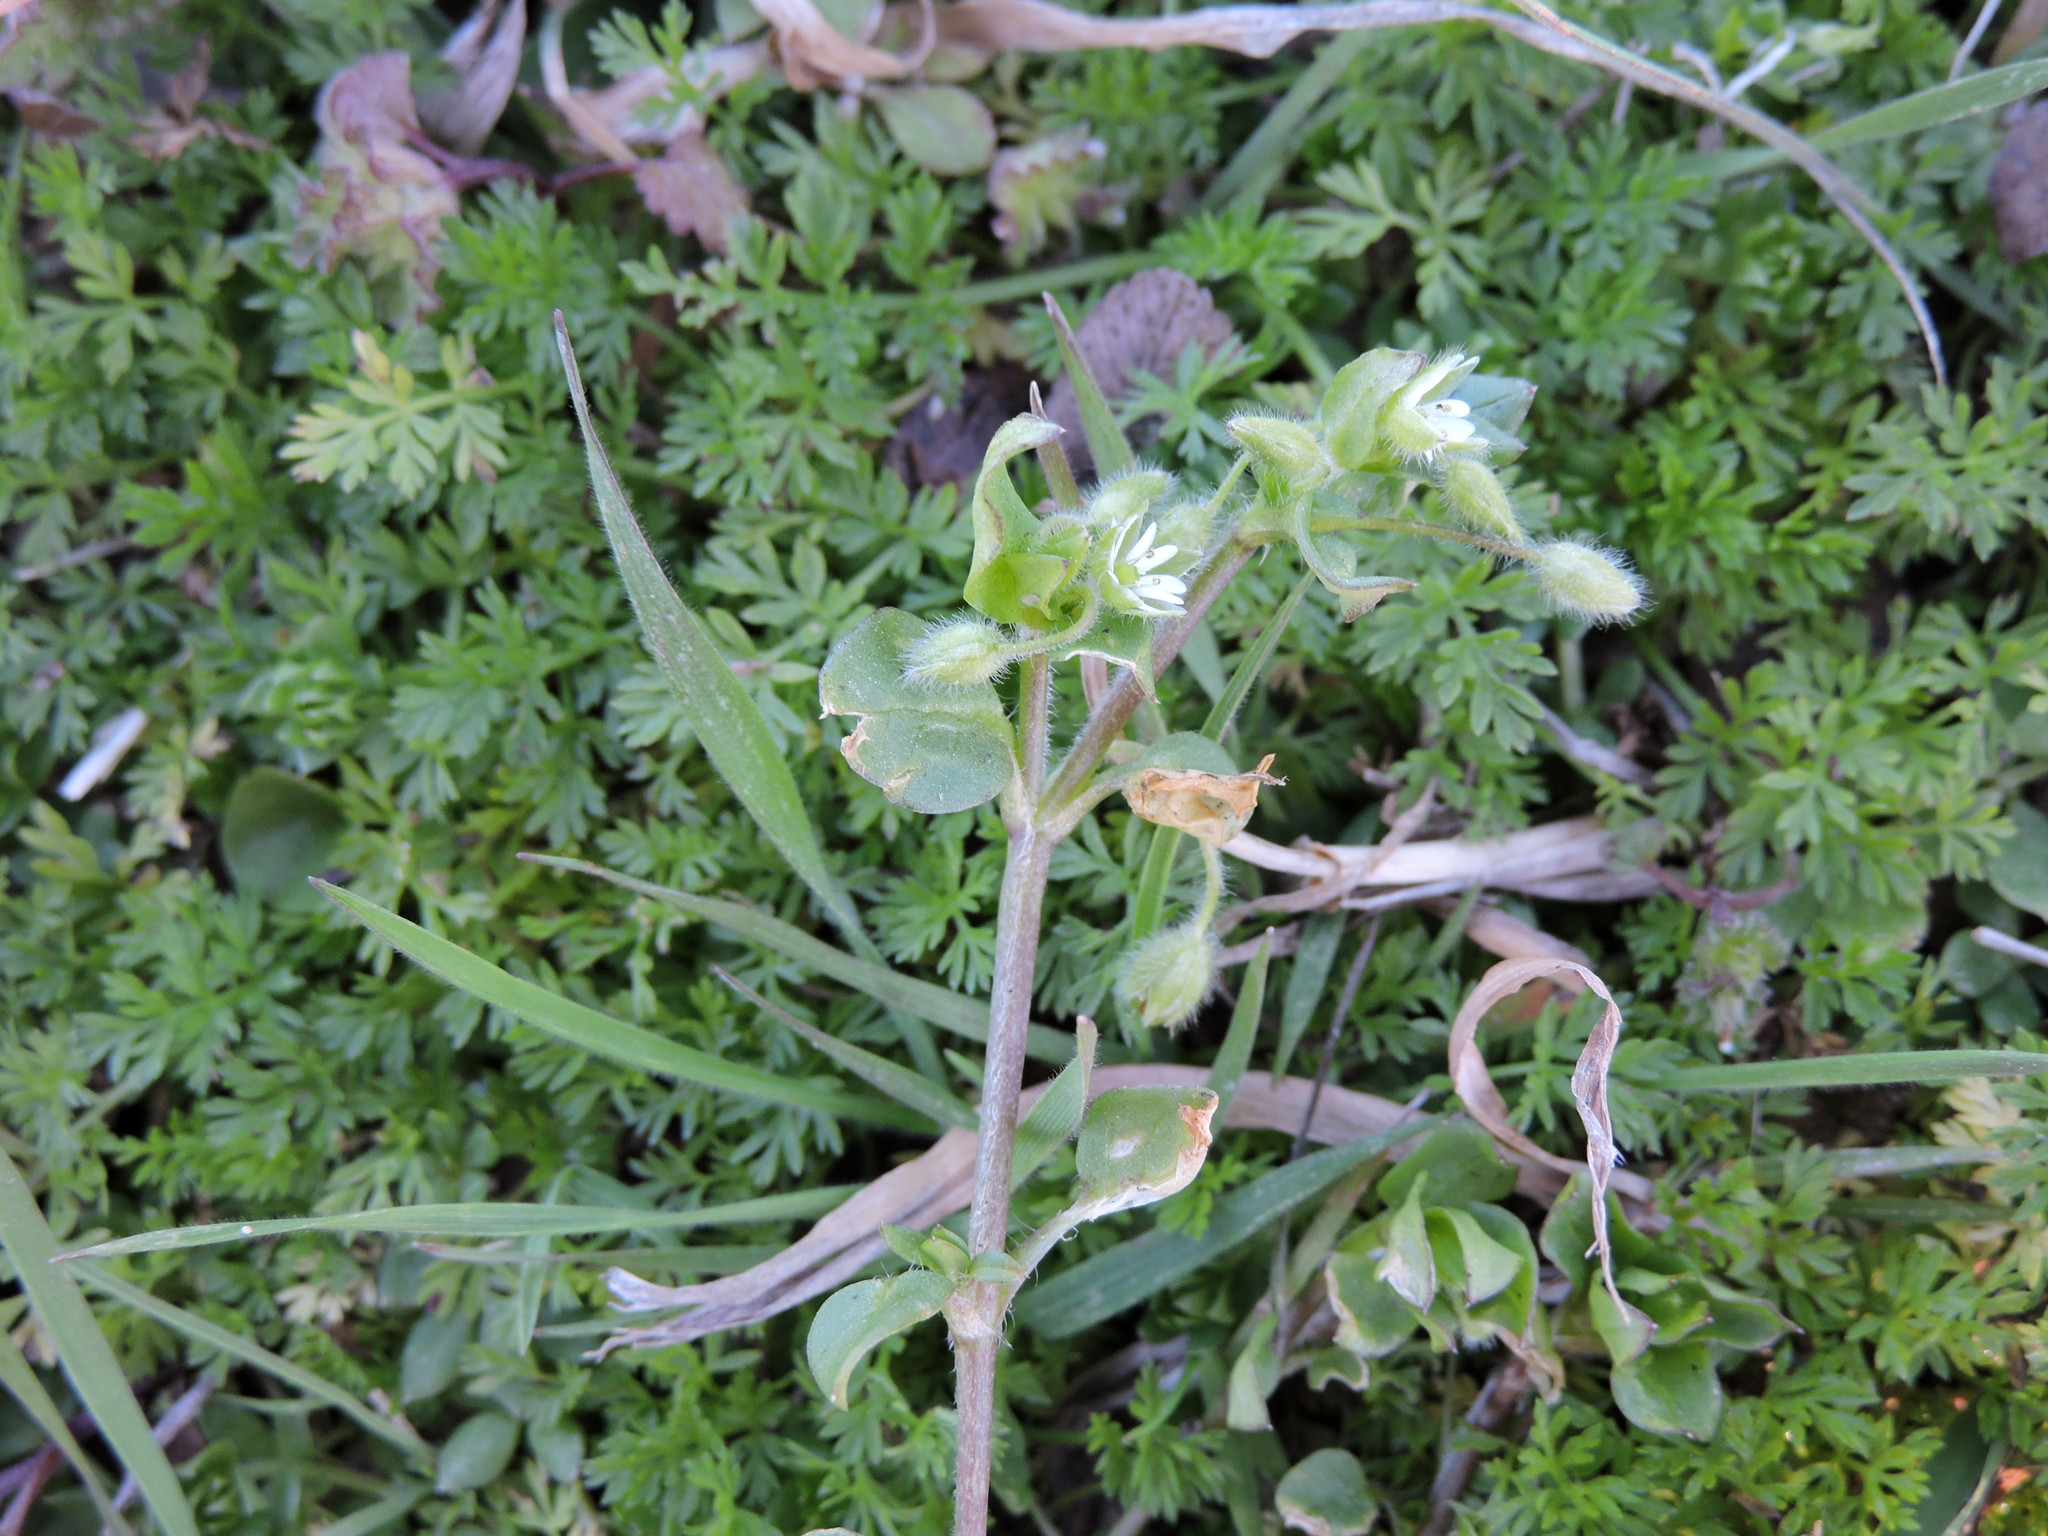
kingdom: Plantae
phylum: Tracheophyta
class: Magnoliopsida
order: Caryophyllales
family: Caryophyllaceae
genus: Cerastium
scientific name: Cerastium glomeratum
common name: Sticky chickweed
